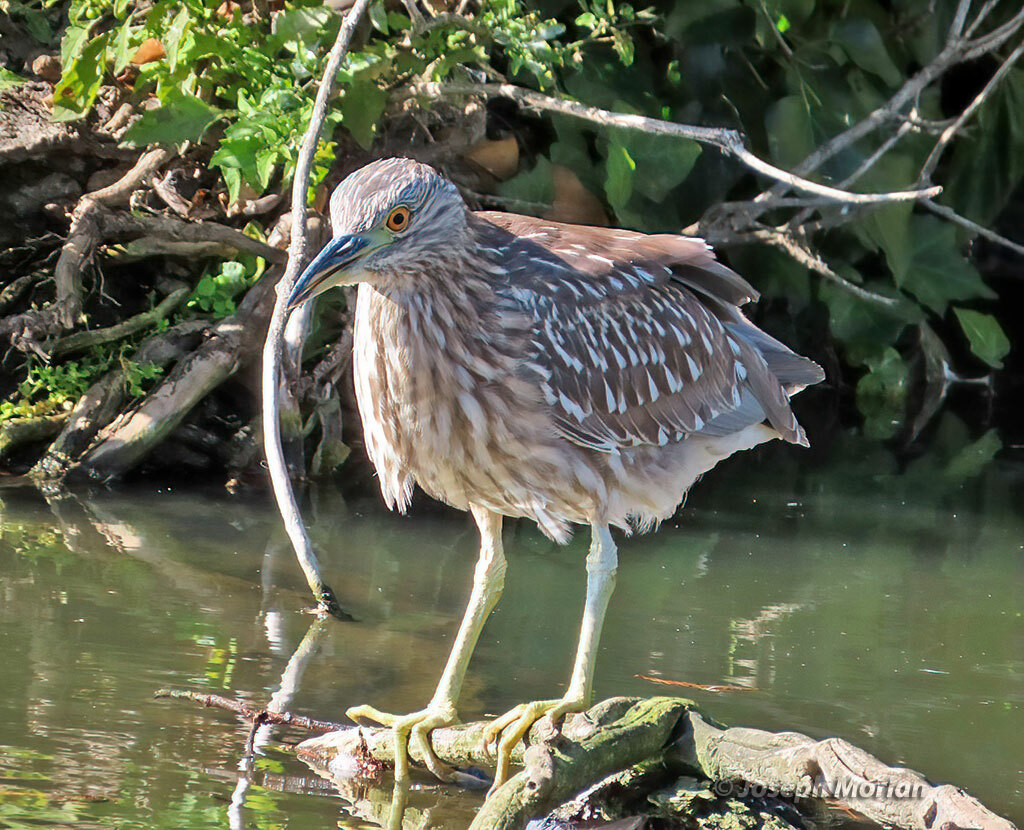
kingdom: Animalia
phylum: Chordata
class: Aves
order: Pelecaniformes
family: Ardeidae
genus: Nycticorax
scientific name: Nycticorax nycticorax
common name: Black-crowned night heron
